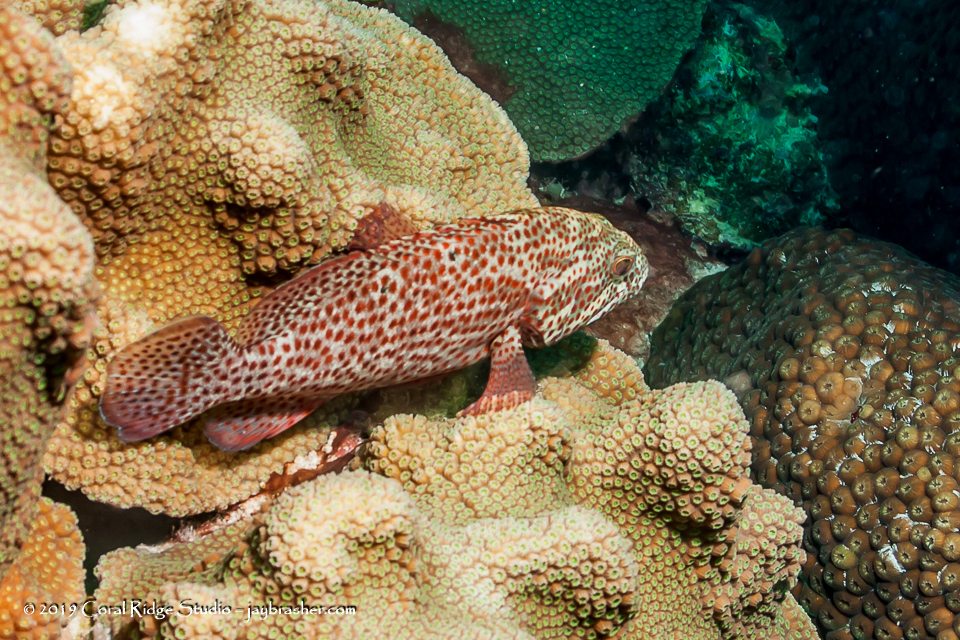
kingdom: Animalia
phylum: Chordata
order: Perciformes
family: Serranidae
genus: Cephalopholis
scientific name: Cephalopholis cruentata
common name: Graysby
